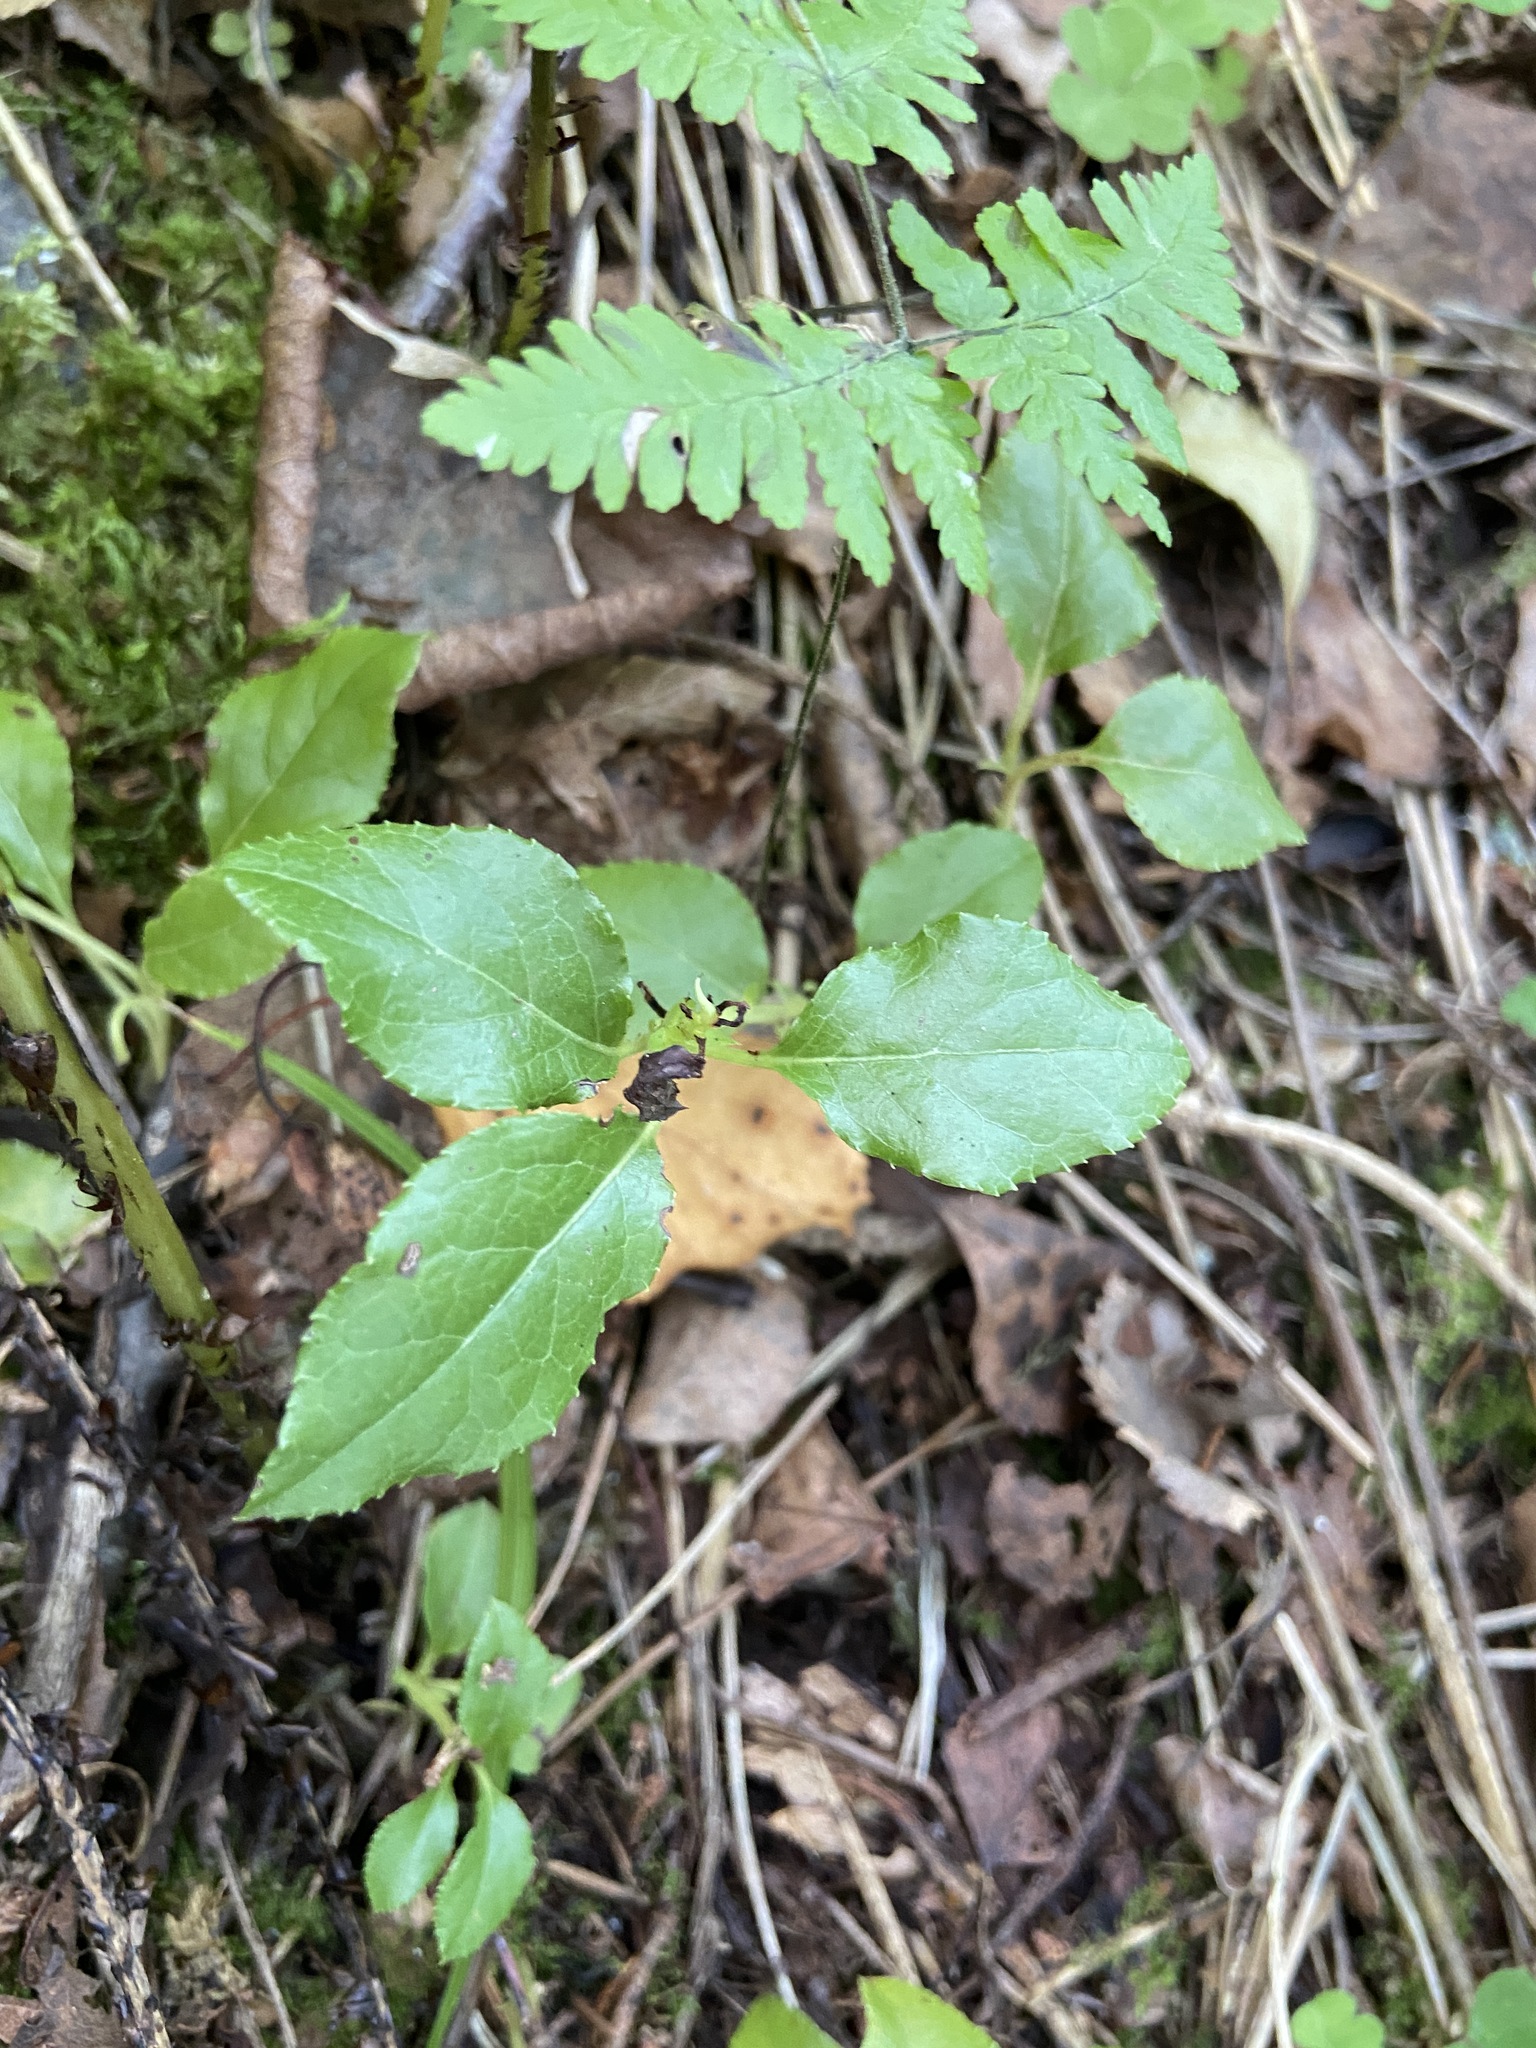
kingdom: Plantae
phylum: Tracheophyta
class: Magnoliopsida
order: Ericales
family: Ericaceae
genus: Orthilia
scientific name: Orthilia secunda
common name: One-sided orthilia
